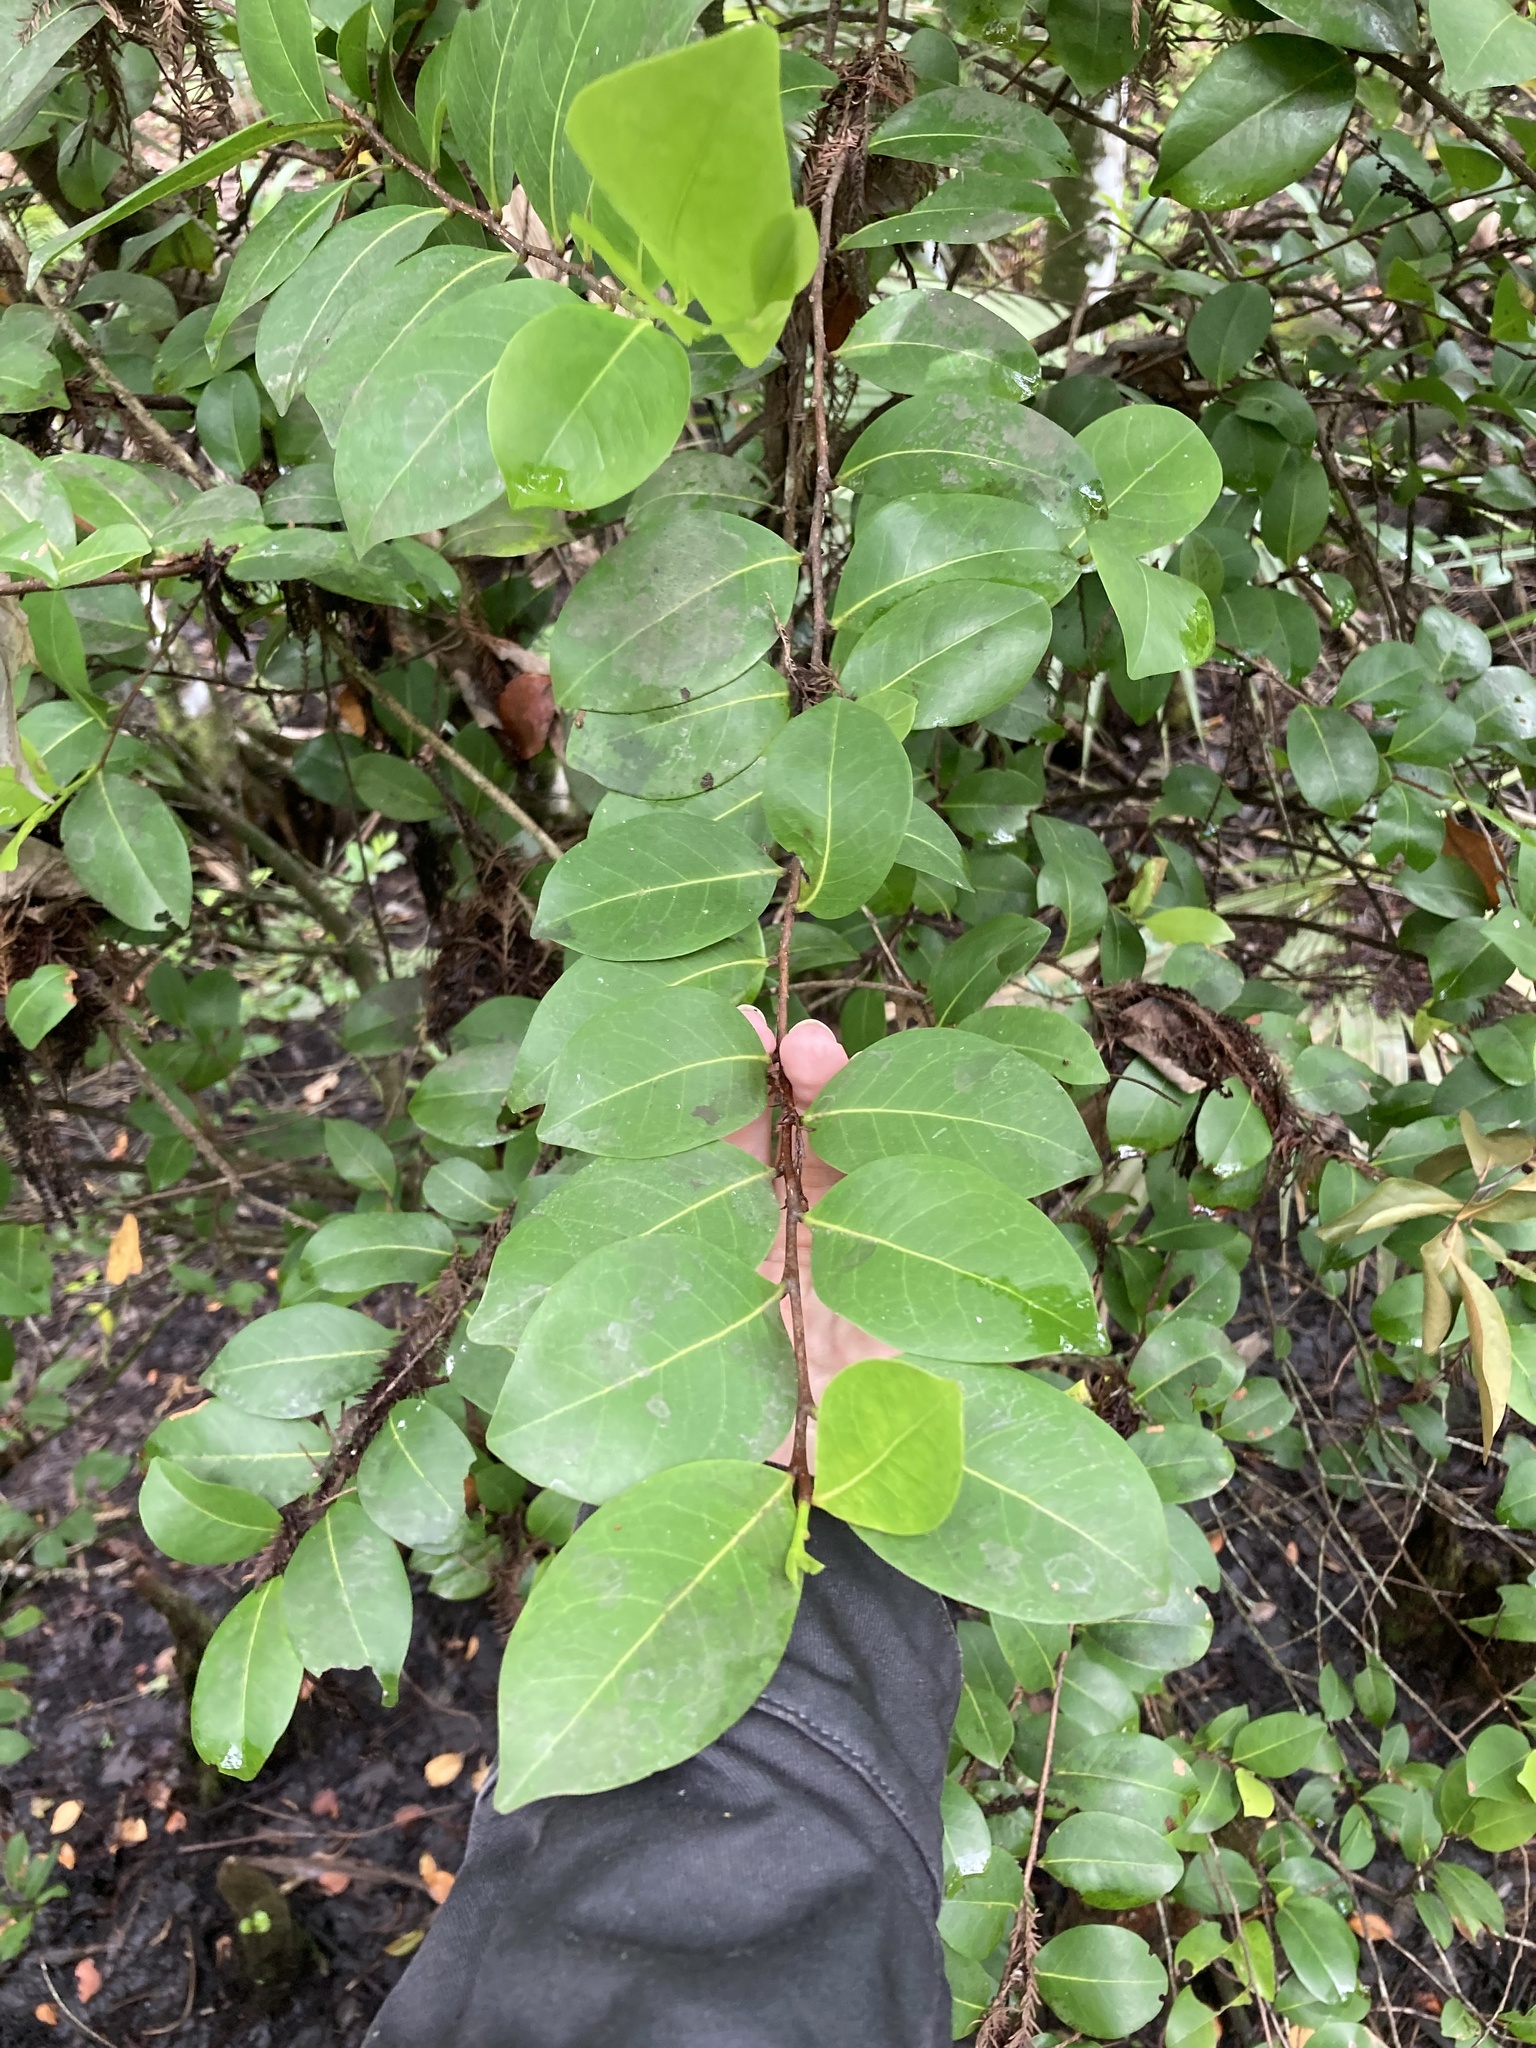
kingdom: Plantae
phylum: Tracheophyta
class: Magnoliopsida
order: Malpighiales
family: Chrysobalanaceae
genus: Chrysobalanus
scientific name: Chrysobalanus icaco
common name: Coco plum
